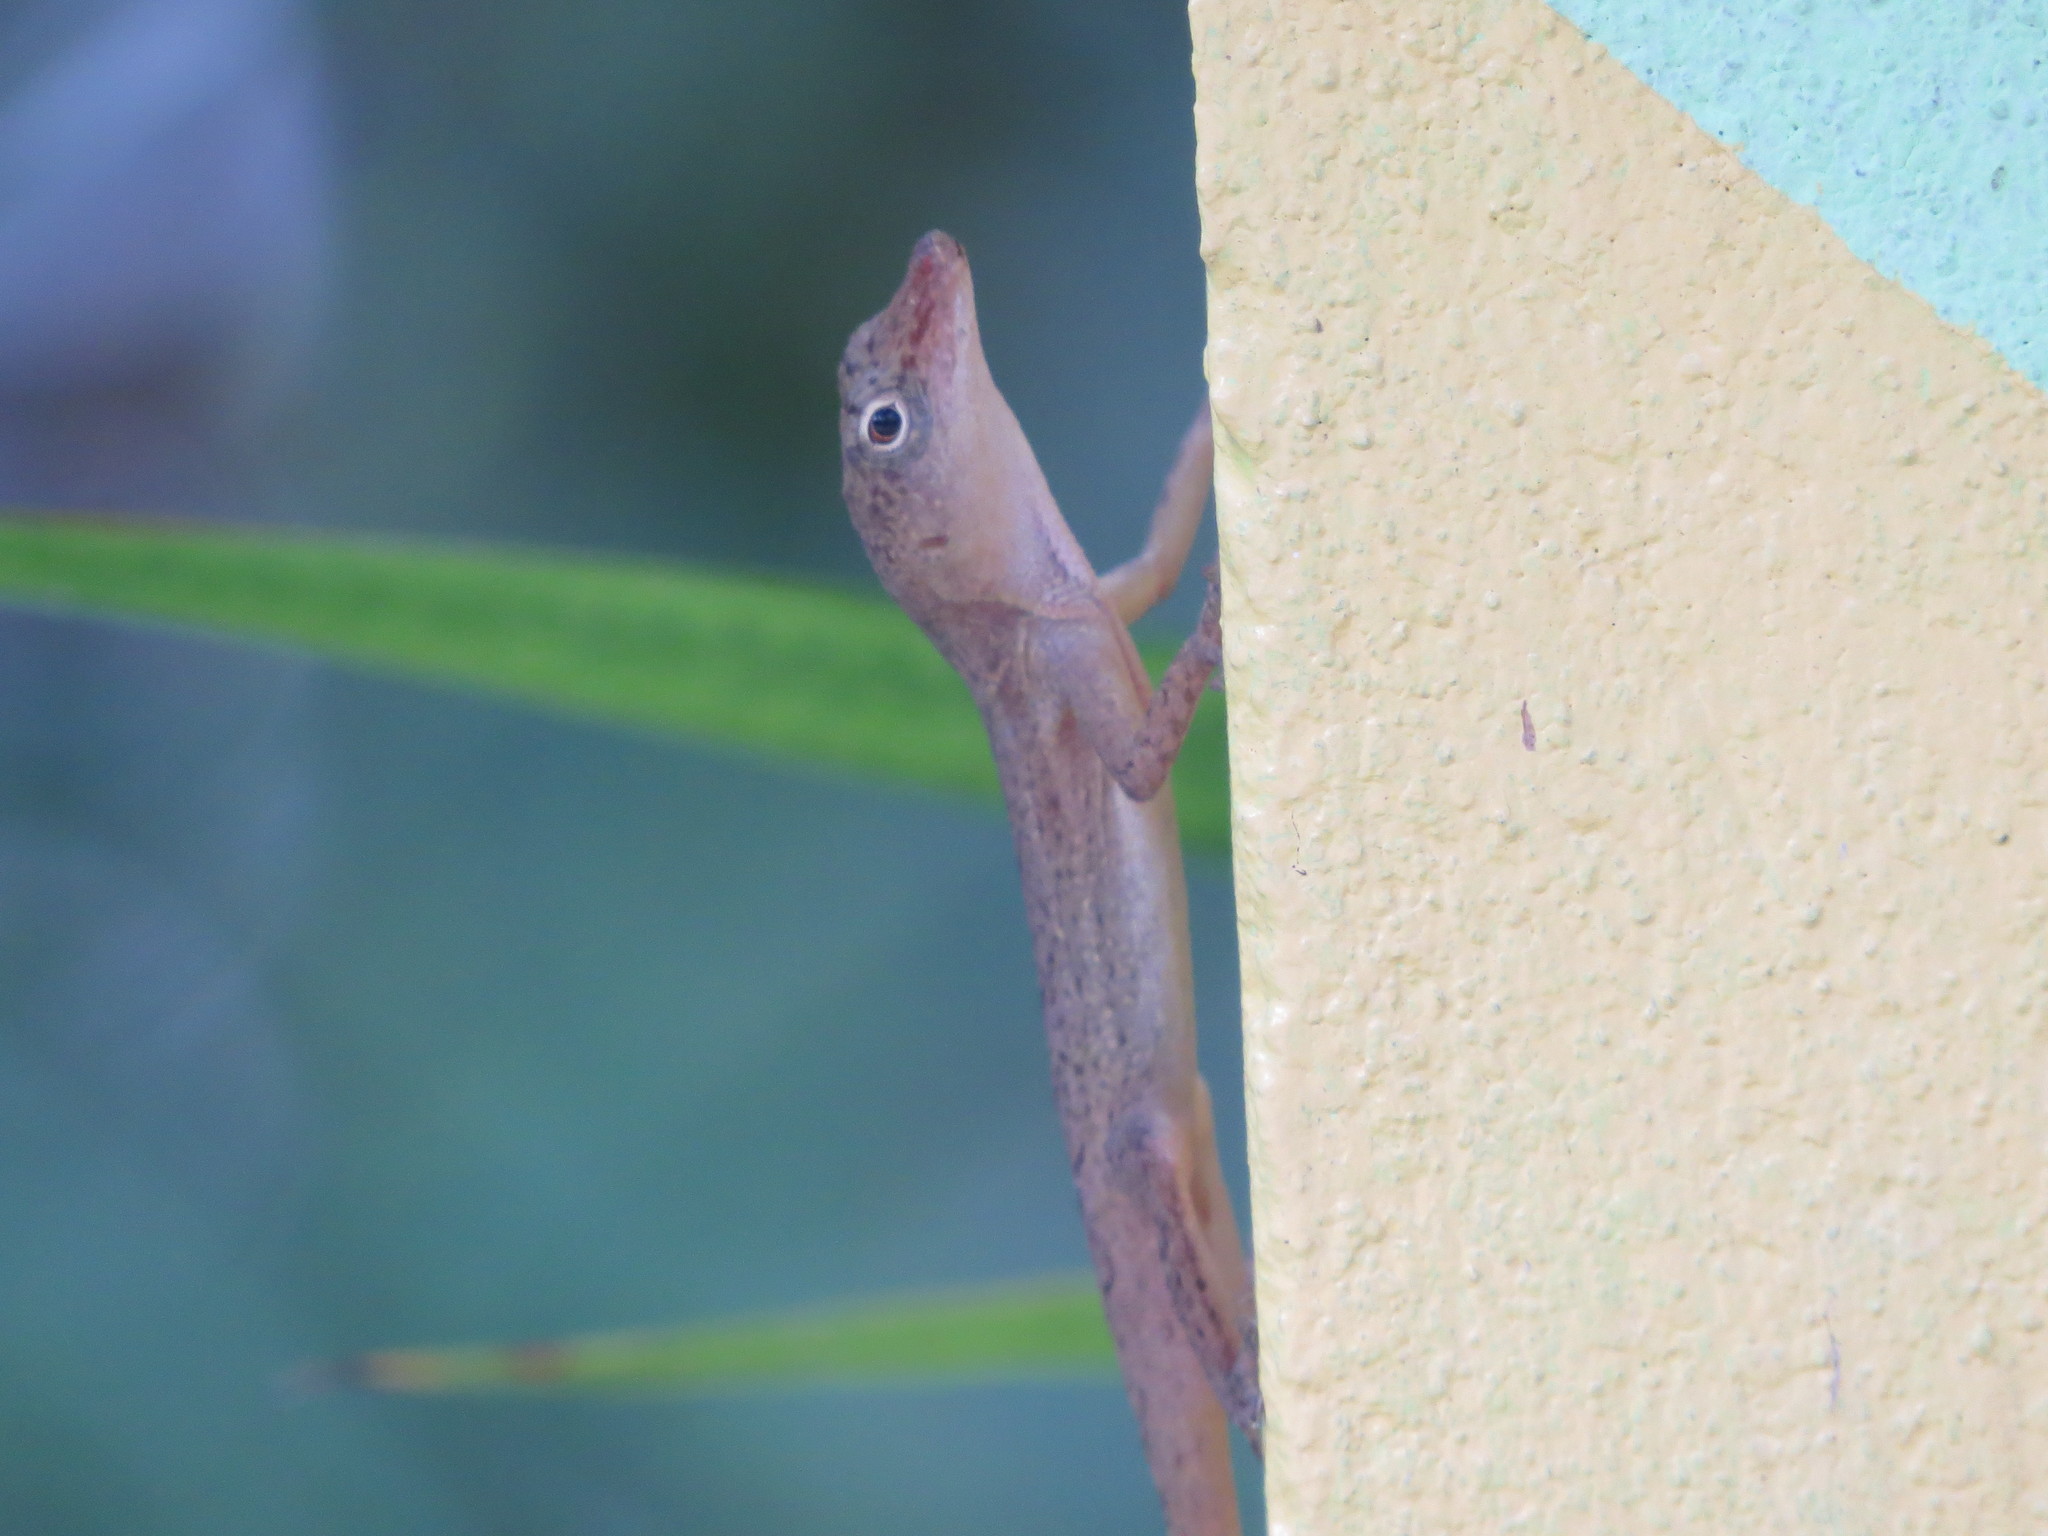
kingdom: Animalia
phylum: Chordata
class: Squamata
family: Dactyloidae
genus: Anolis
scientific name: Anolis pinchoti
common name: Crab cay anole
